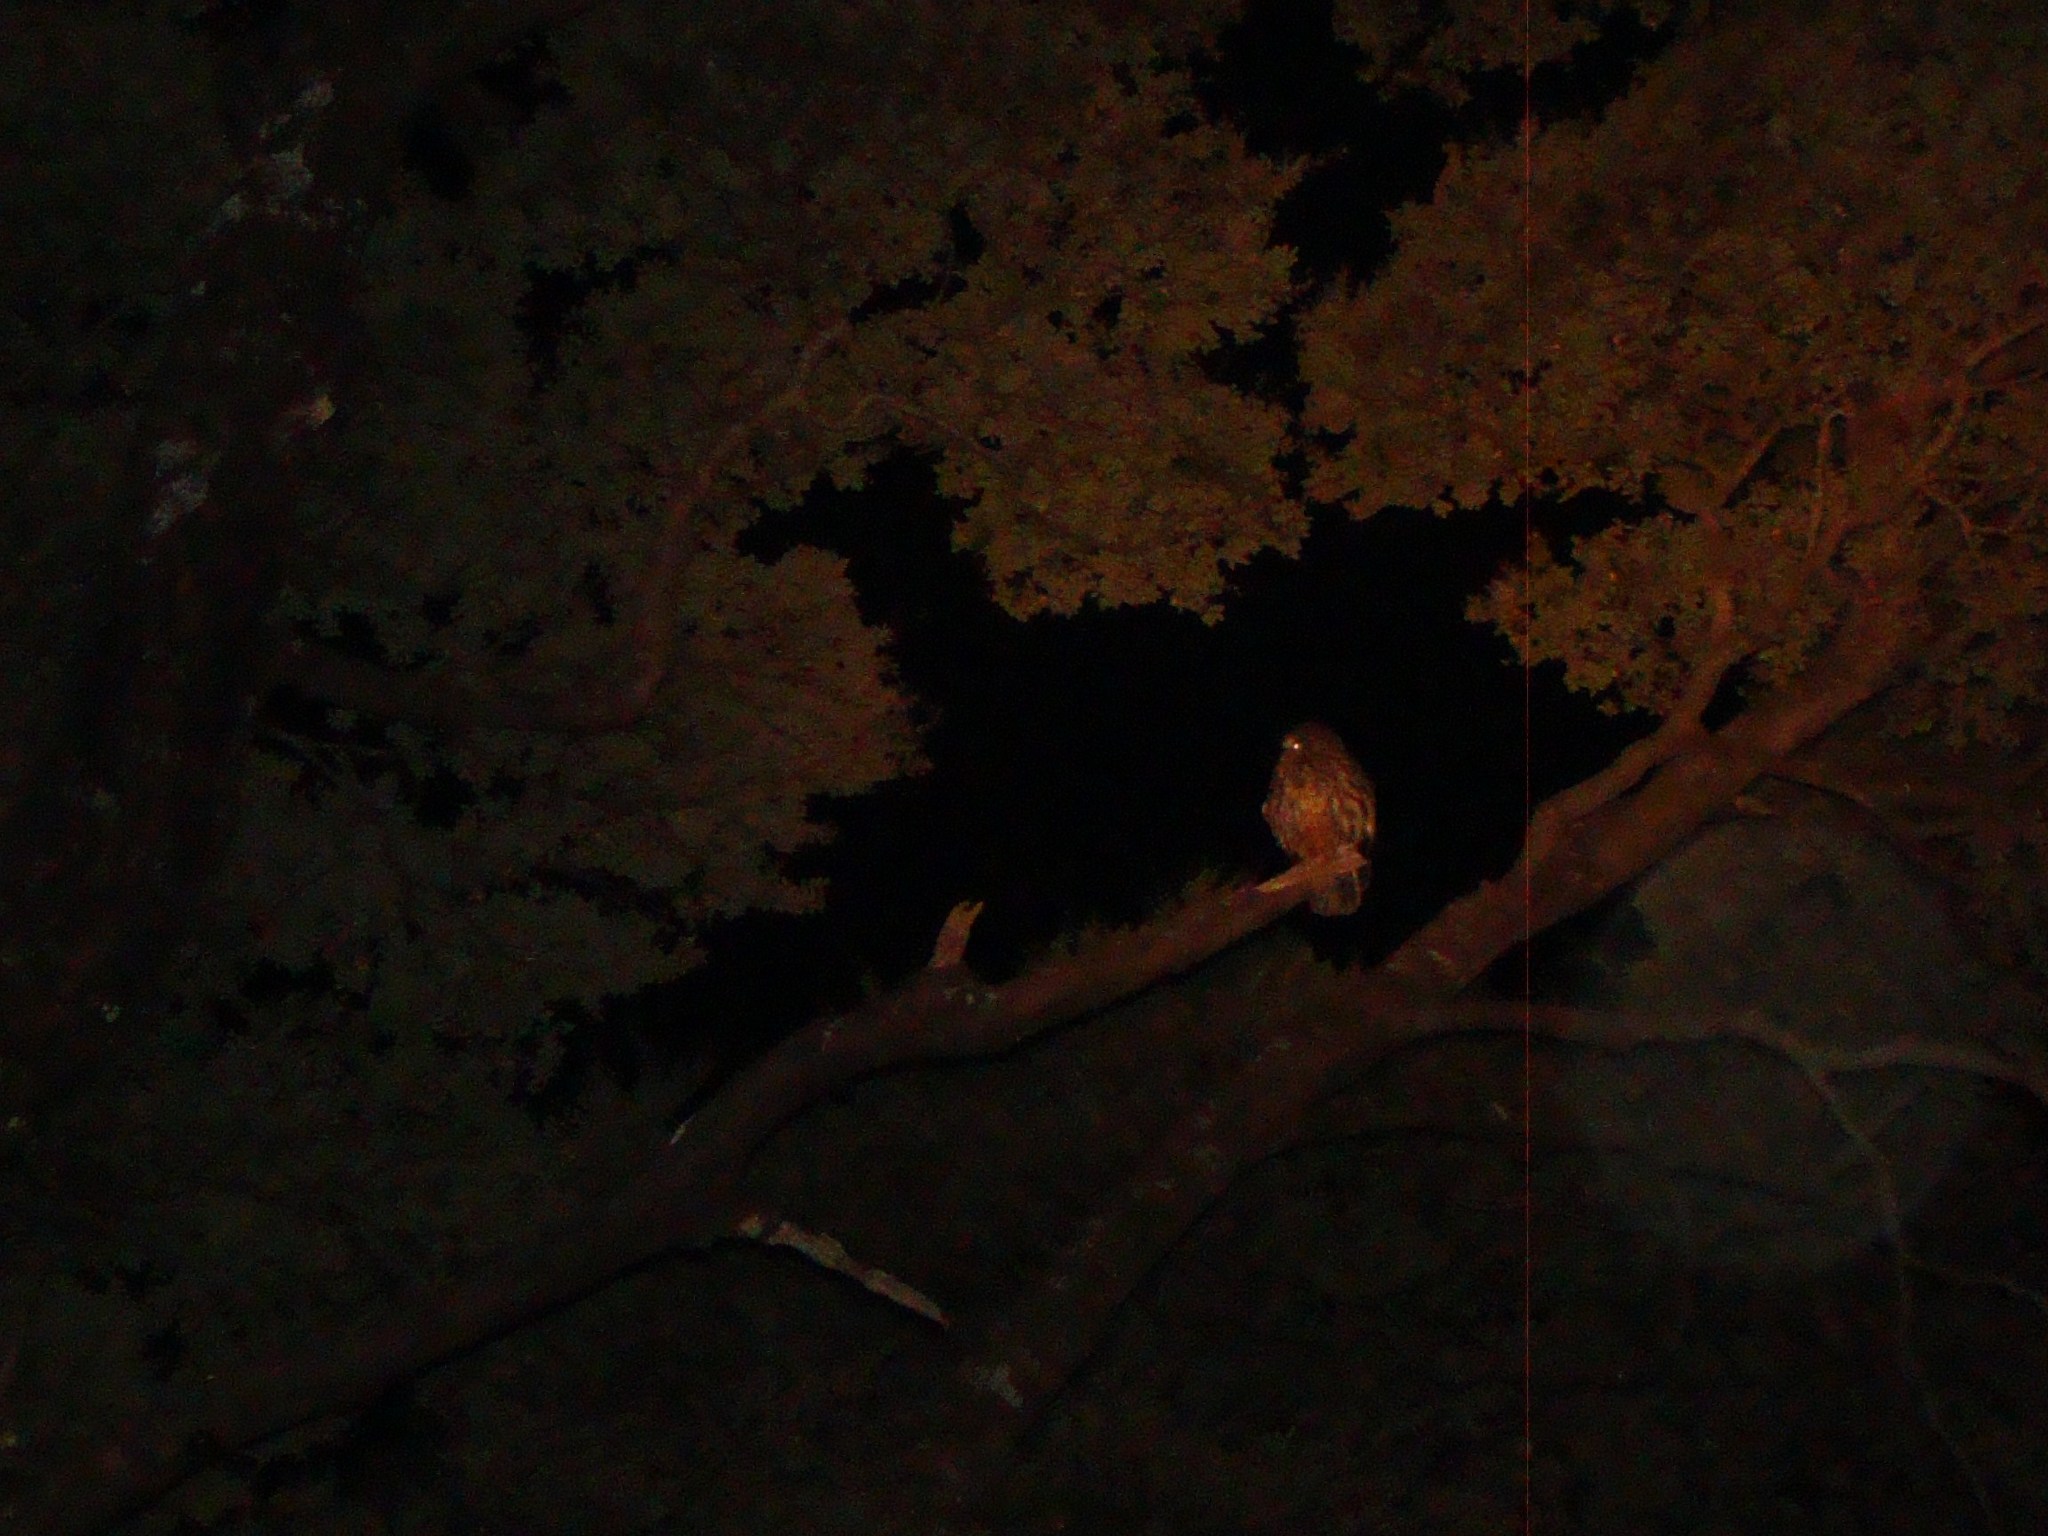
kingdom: Animalia
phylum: Chordata
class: Aves
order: Strigiformes
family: Strigidae
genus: Ninox
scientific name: Ninox novaeseelandiae
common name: Morepork
